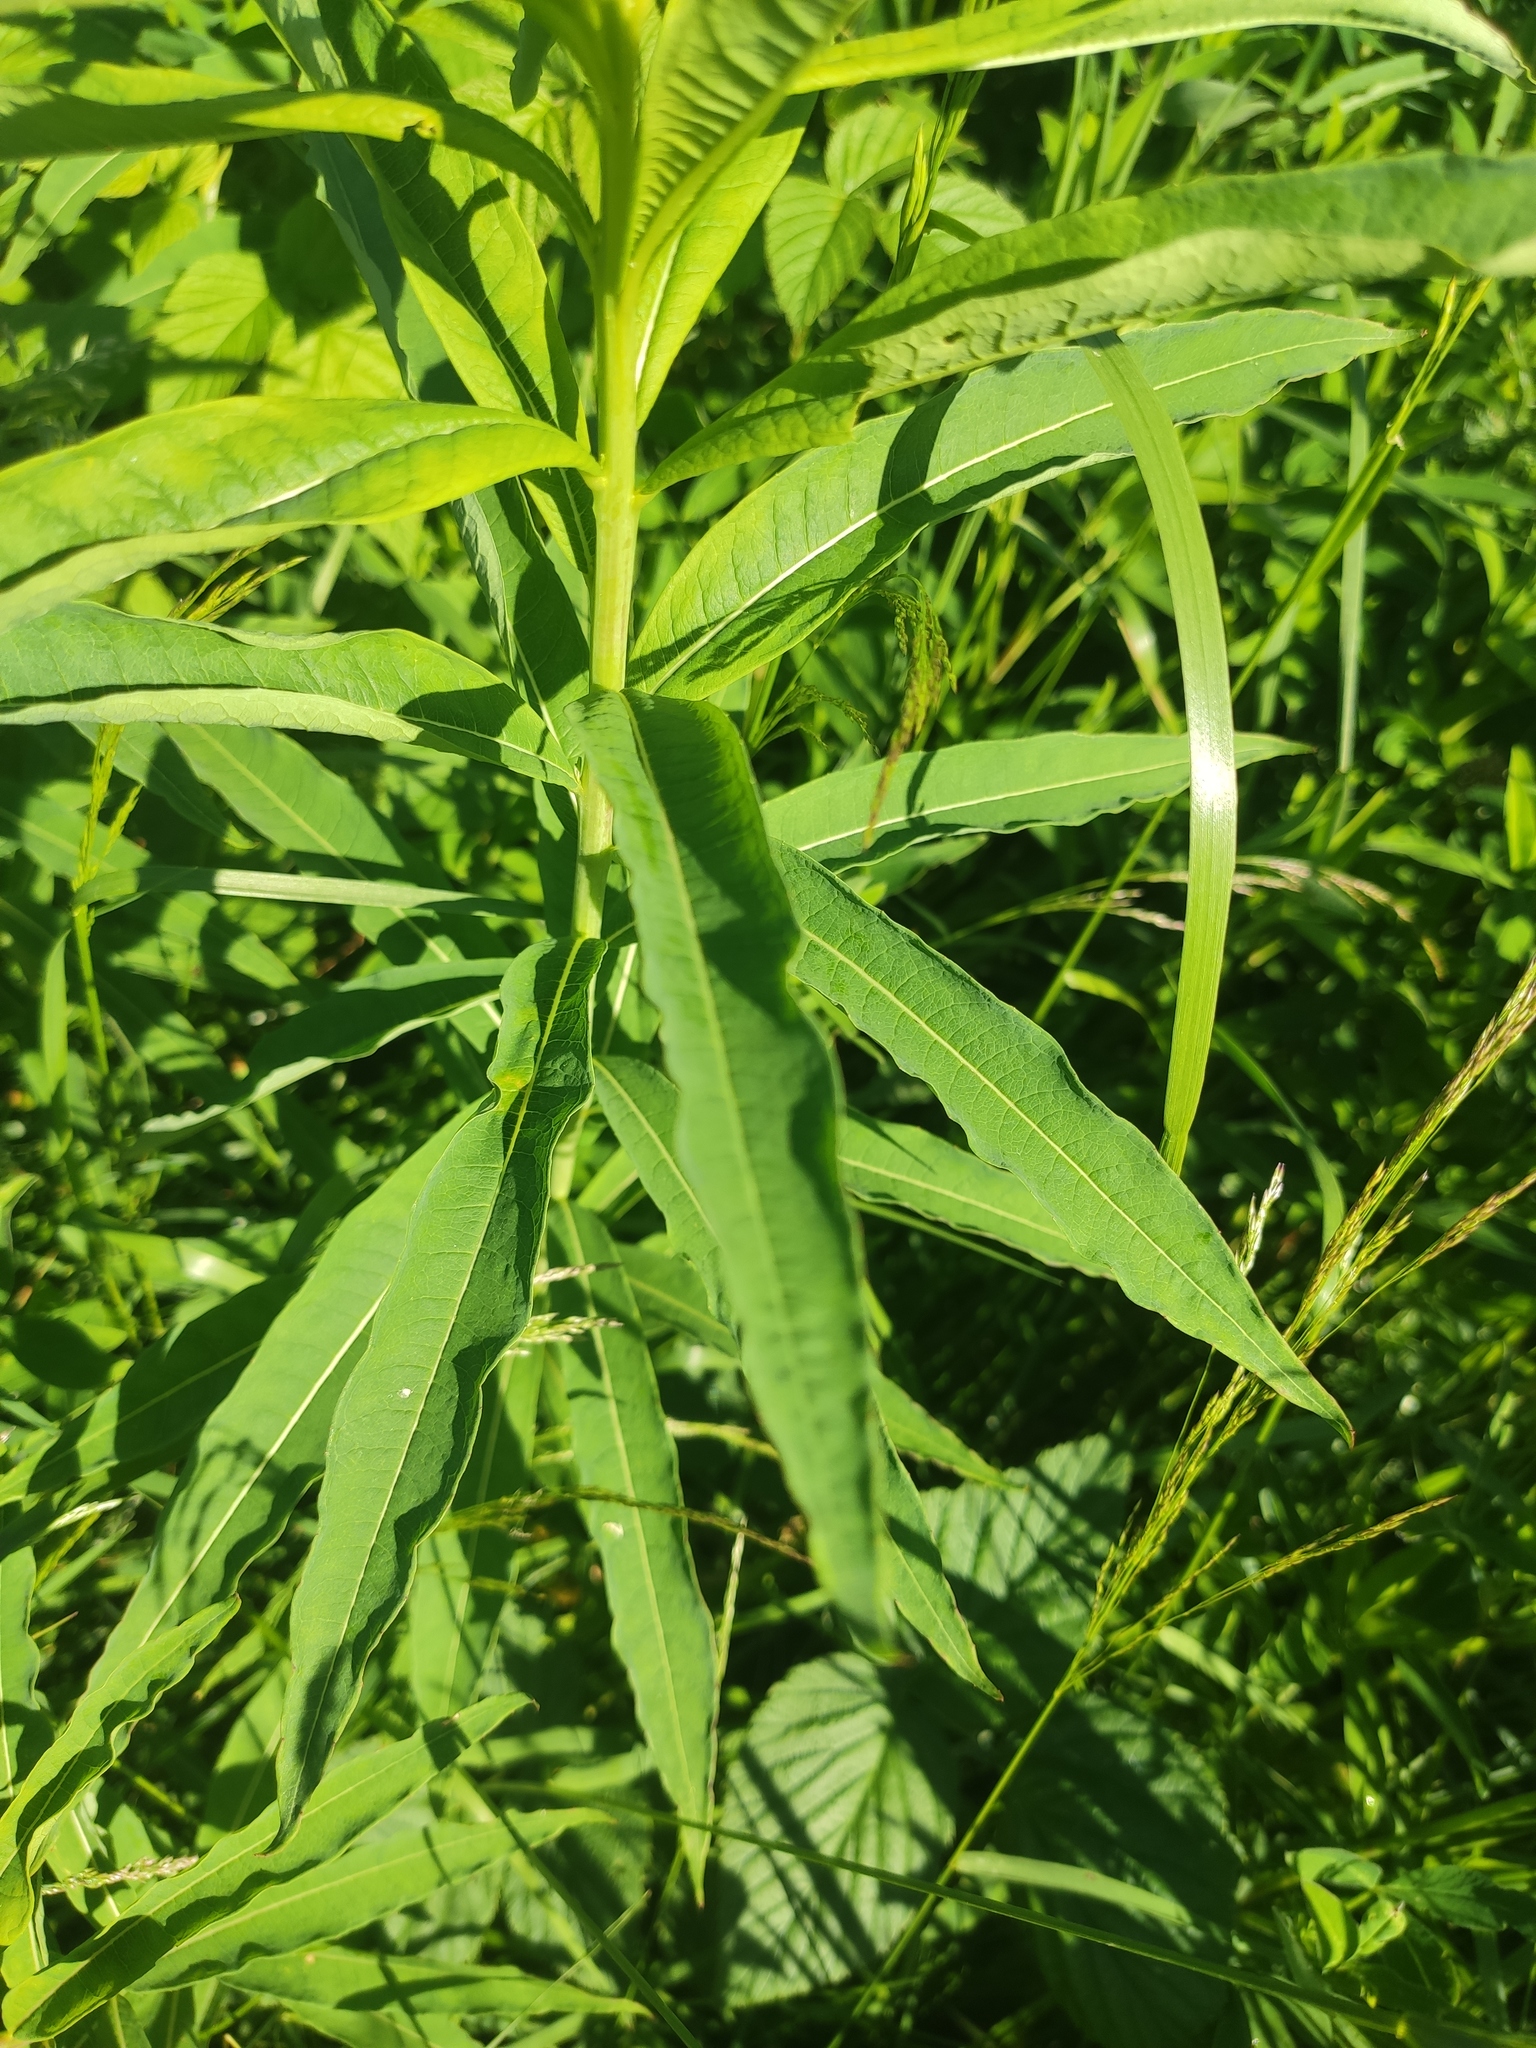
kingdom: Plantae
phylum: Tracheophyta
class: Magnoliopsida
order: Myrtales
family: Onagraceae
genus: Chamaenerion
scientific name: Chamaenerion angustifolium
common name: Fireweed
